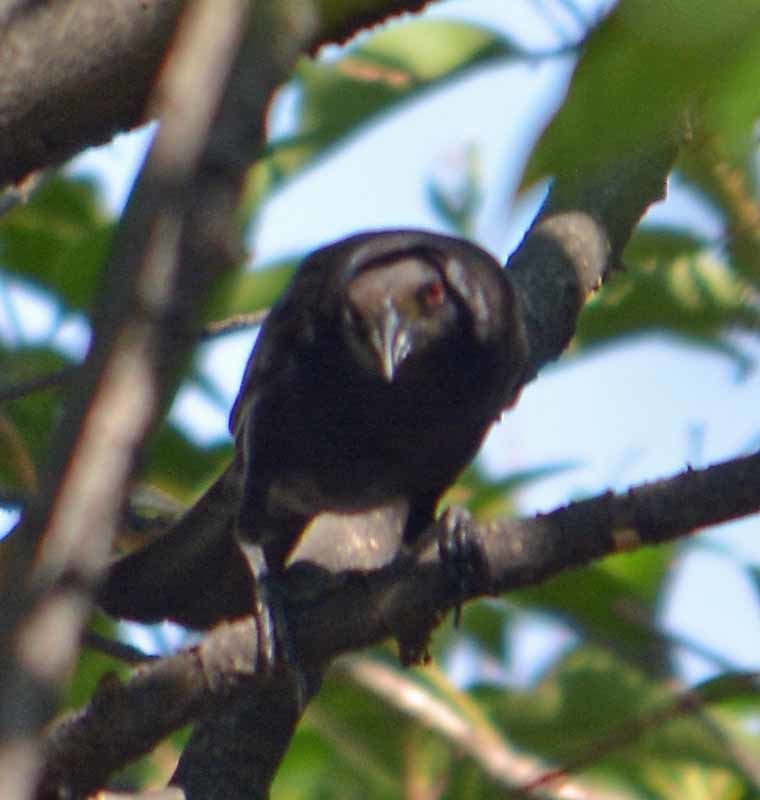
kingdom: Animalia
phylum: Chordata
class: Aves
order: Passeriformes
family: Icteridae
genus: Molothrus
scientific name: Molothrus aeneus
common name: Bronzed cowbird
